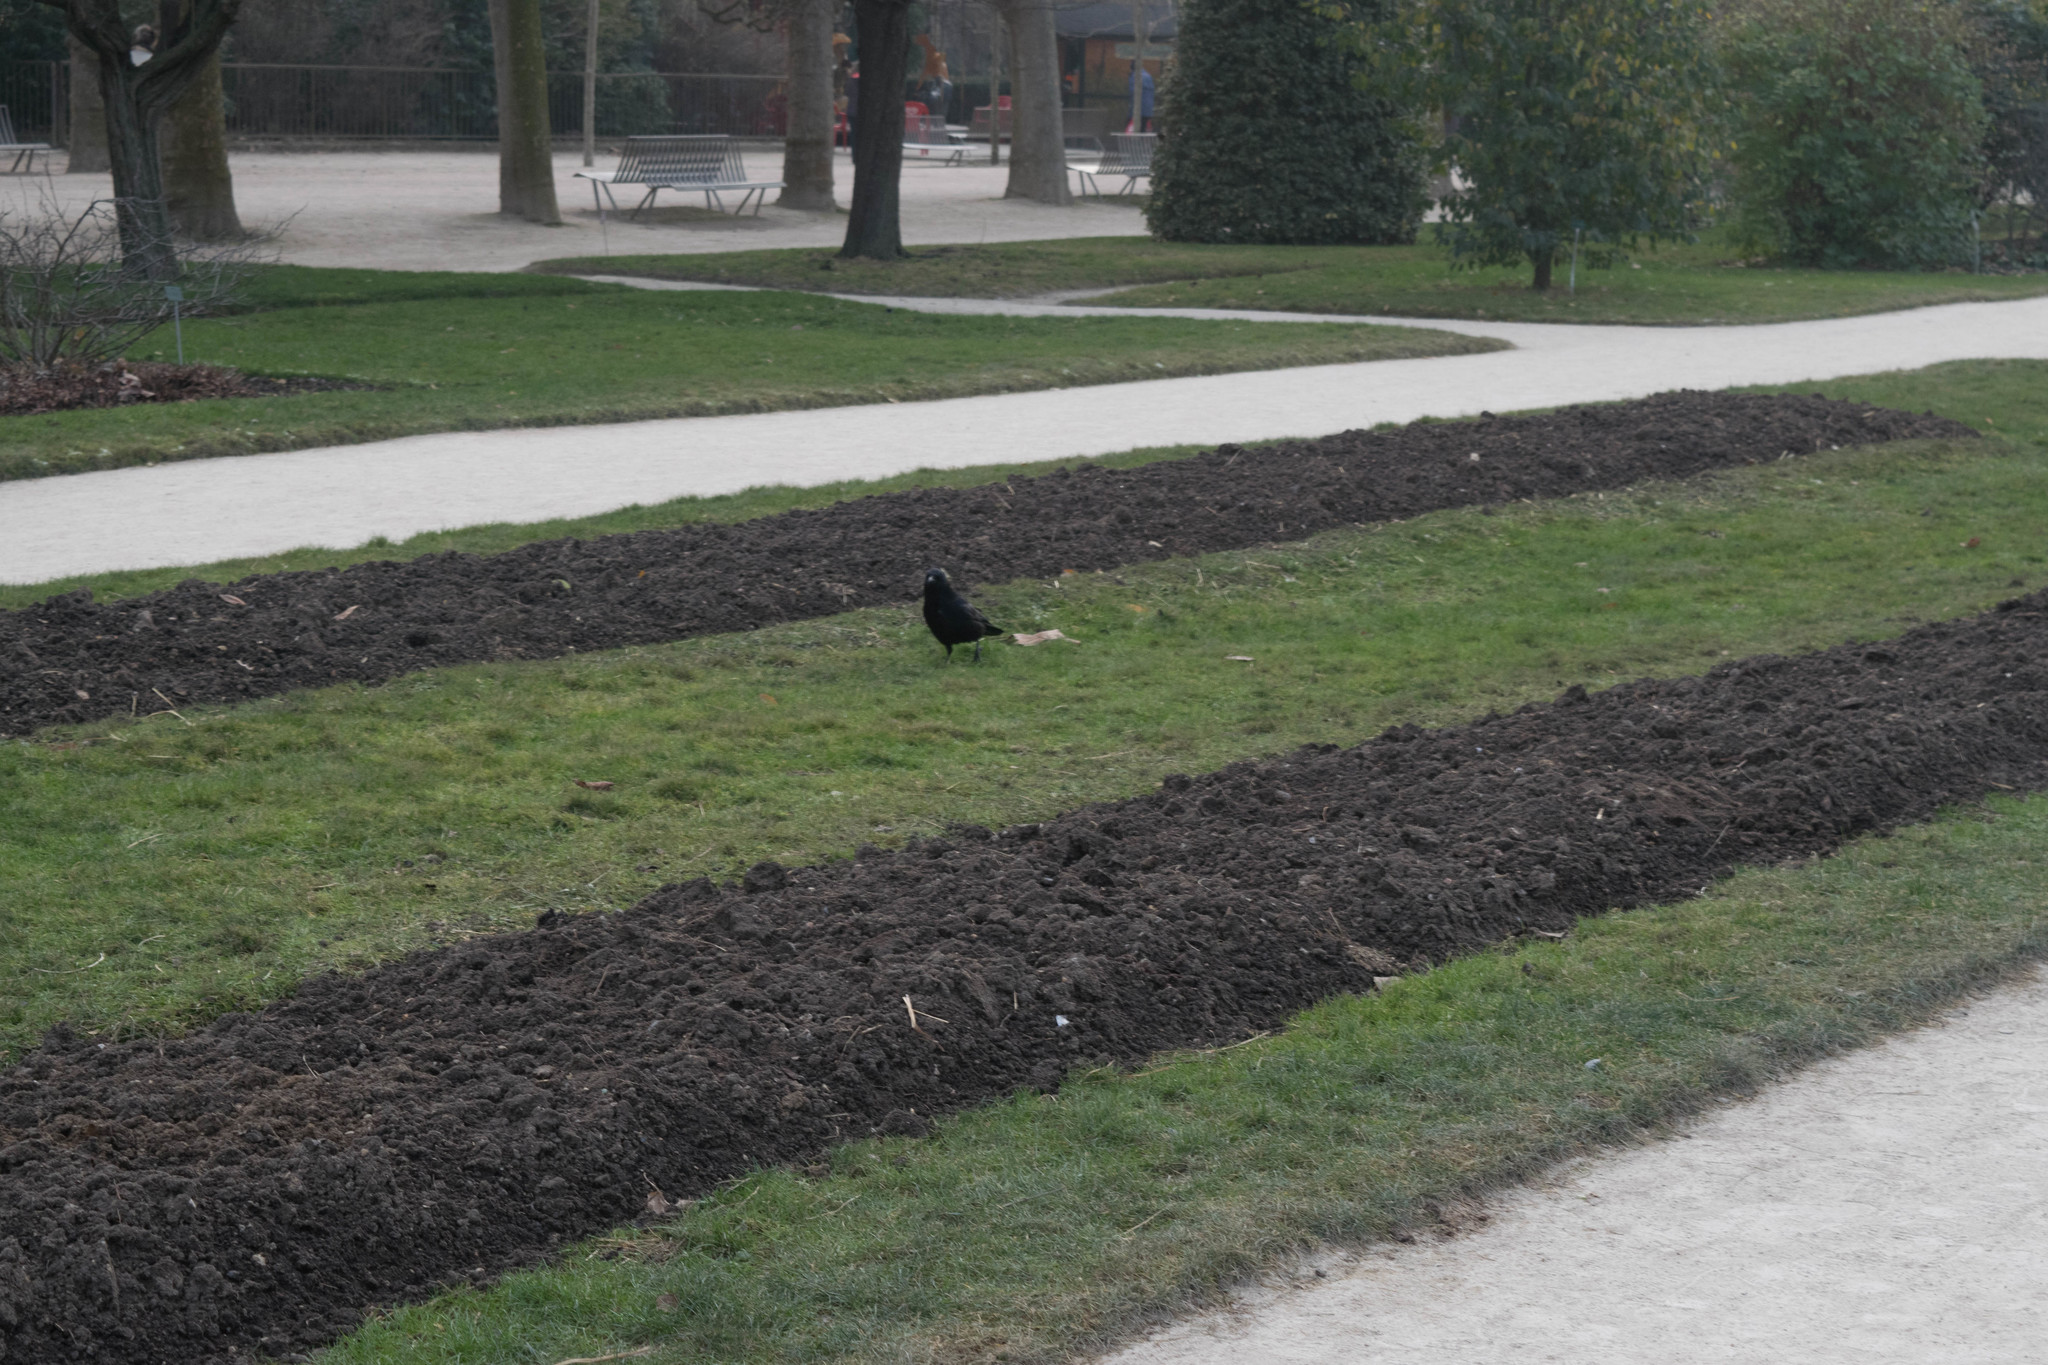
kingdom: Animalia
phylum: Chordata
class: Aves
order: Passeriformes
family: Corvidae
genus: Corvus
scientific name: Corvus corone
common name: Carrion crow
